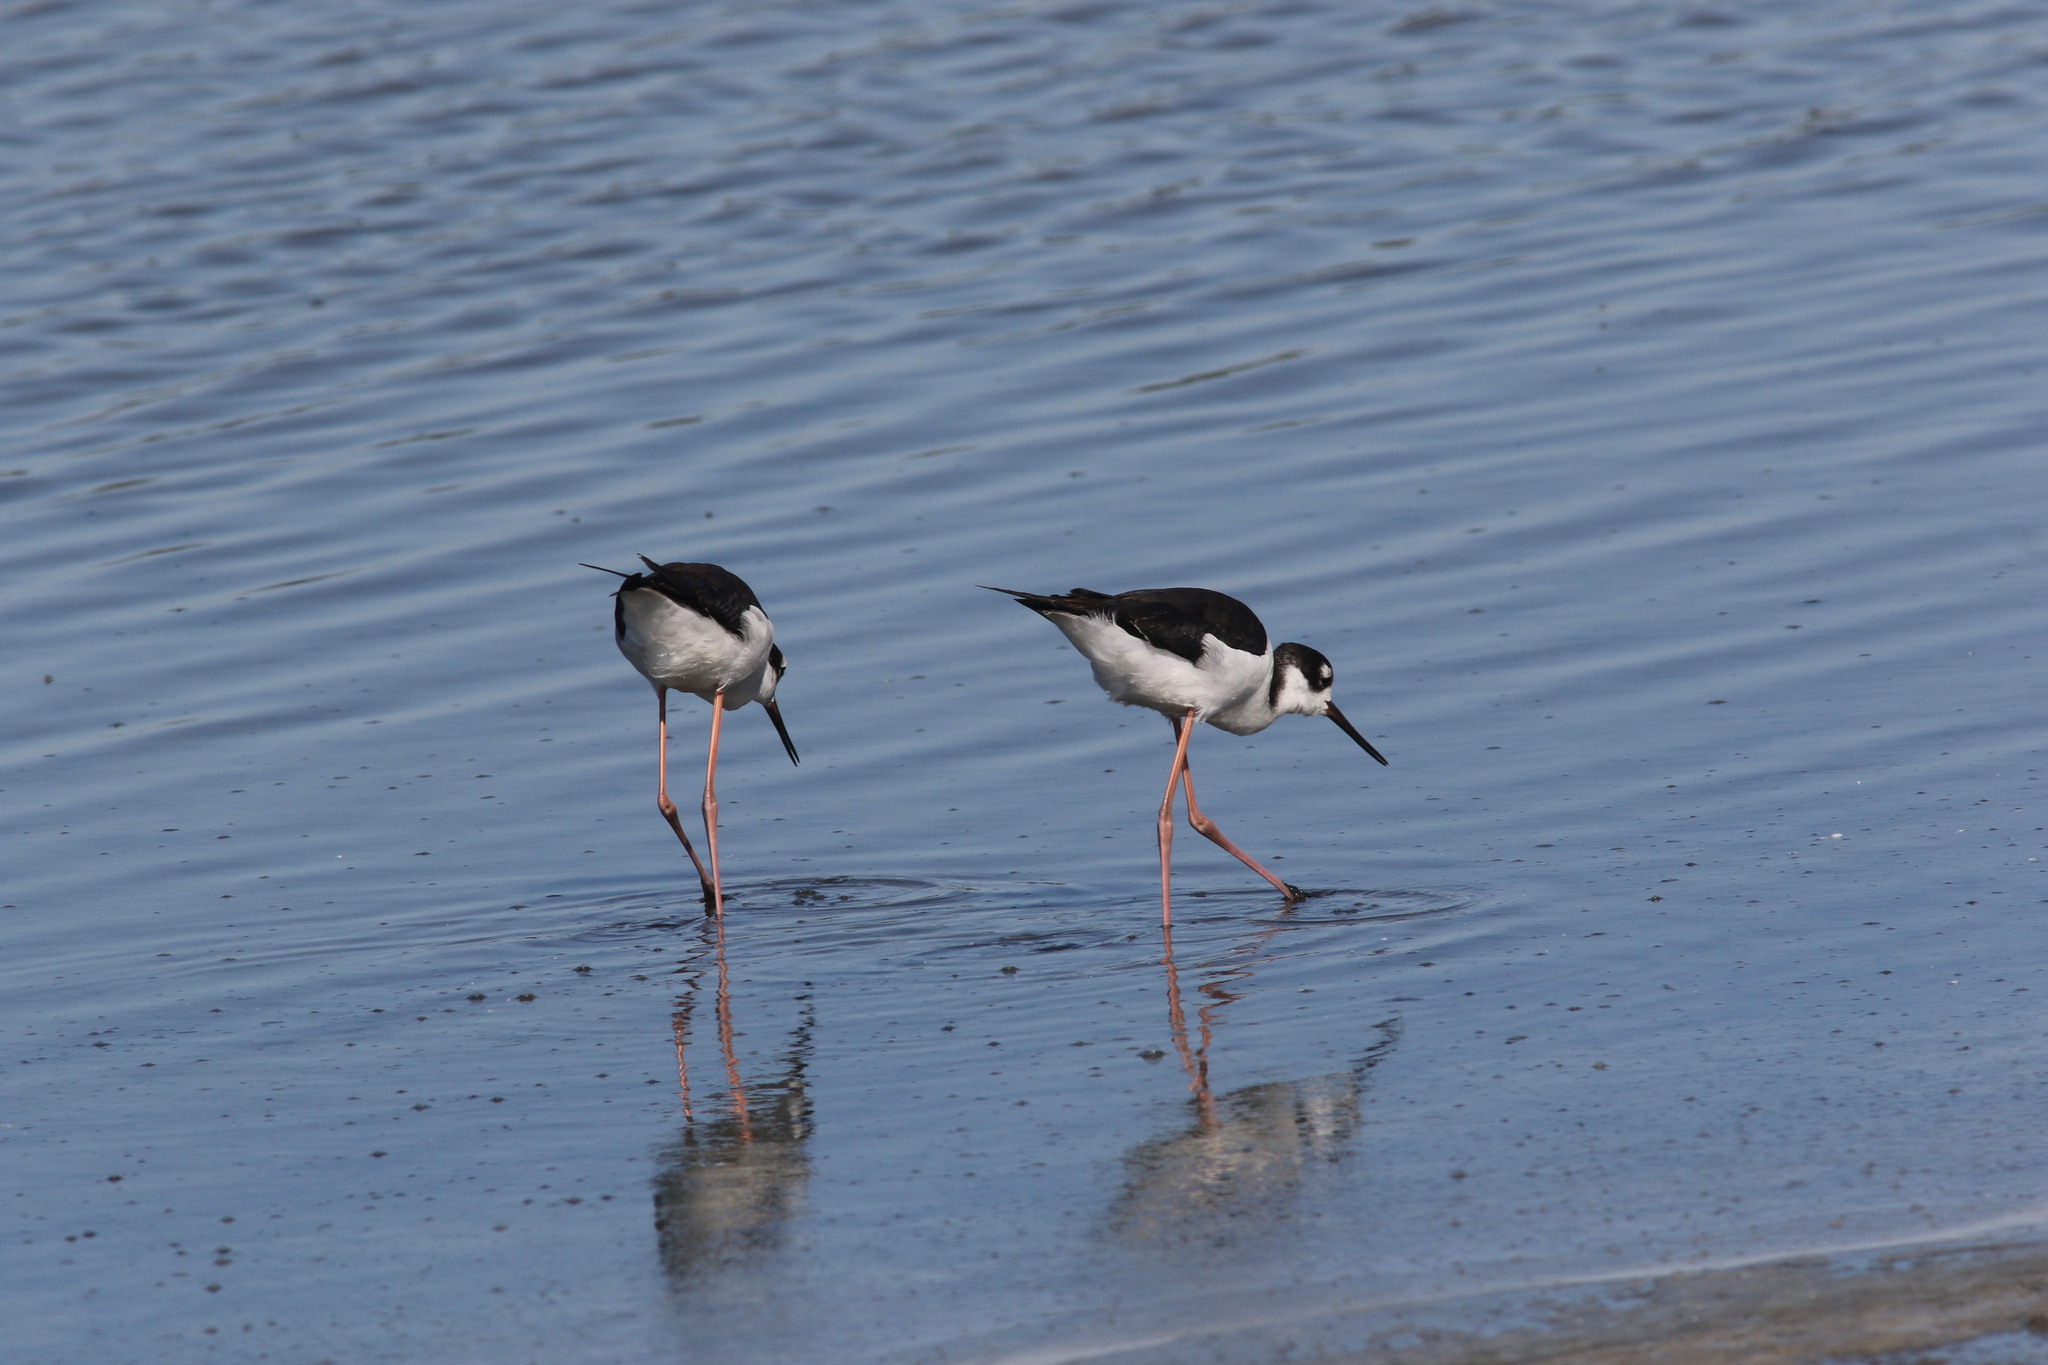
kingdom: Animalia
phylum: Chordata
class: Aves
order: Charadriiformes
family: Recurvirostridae
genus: Himantopus
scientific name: Himantopus mexicanus
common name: Black-necked stilt
